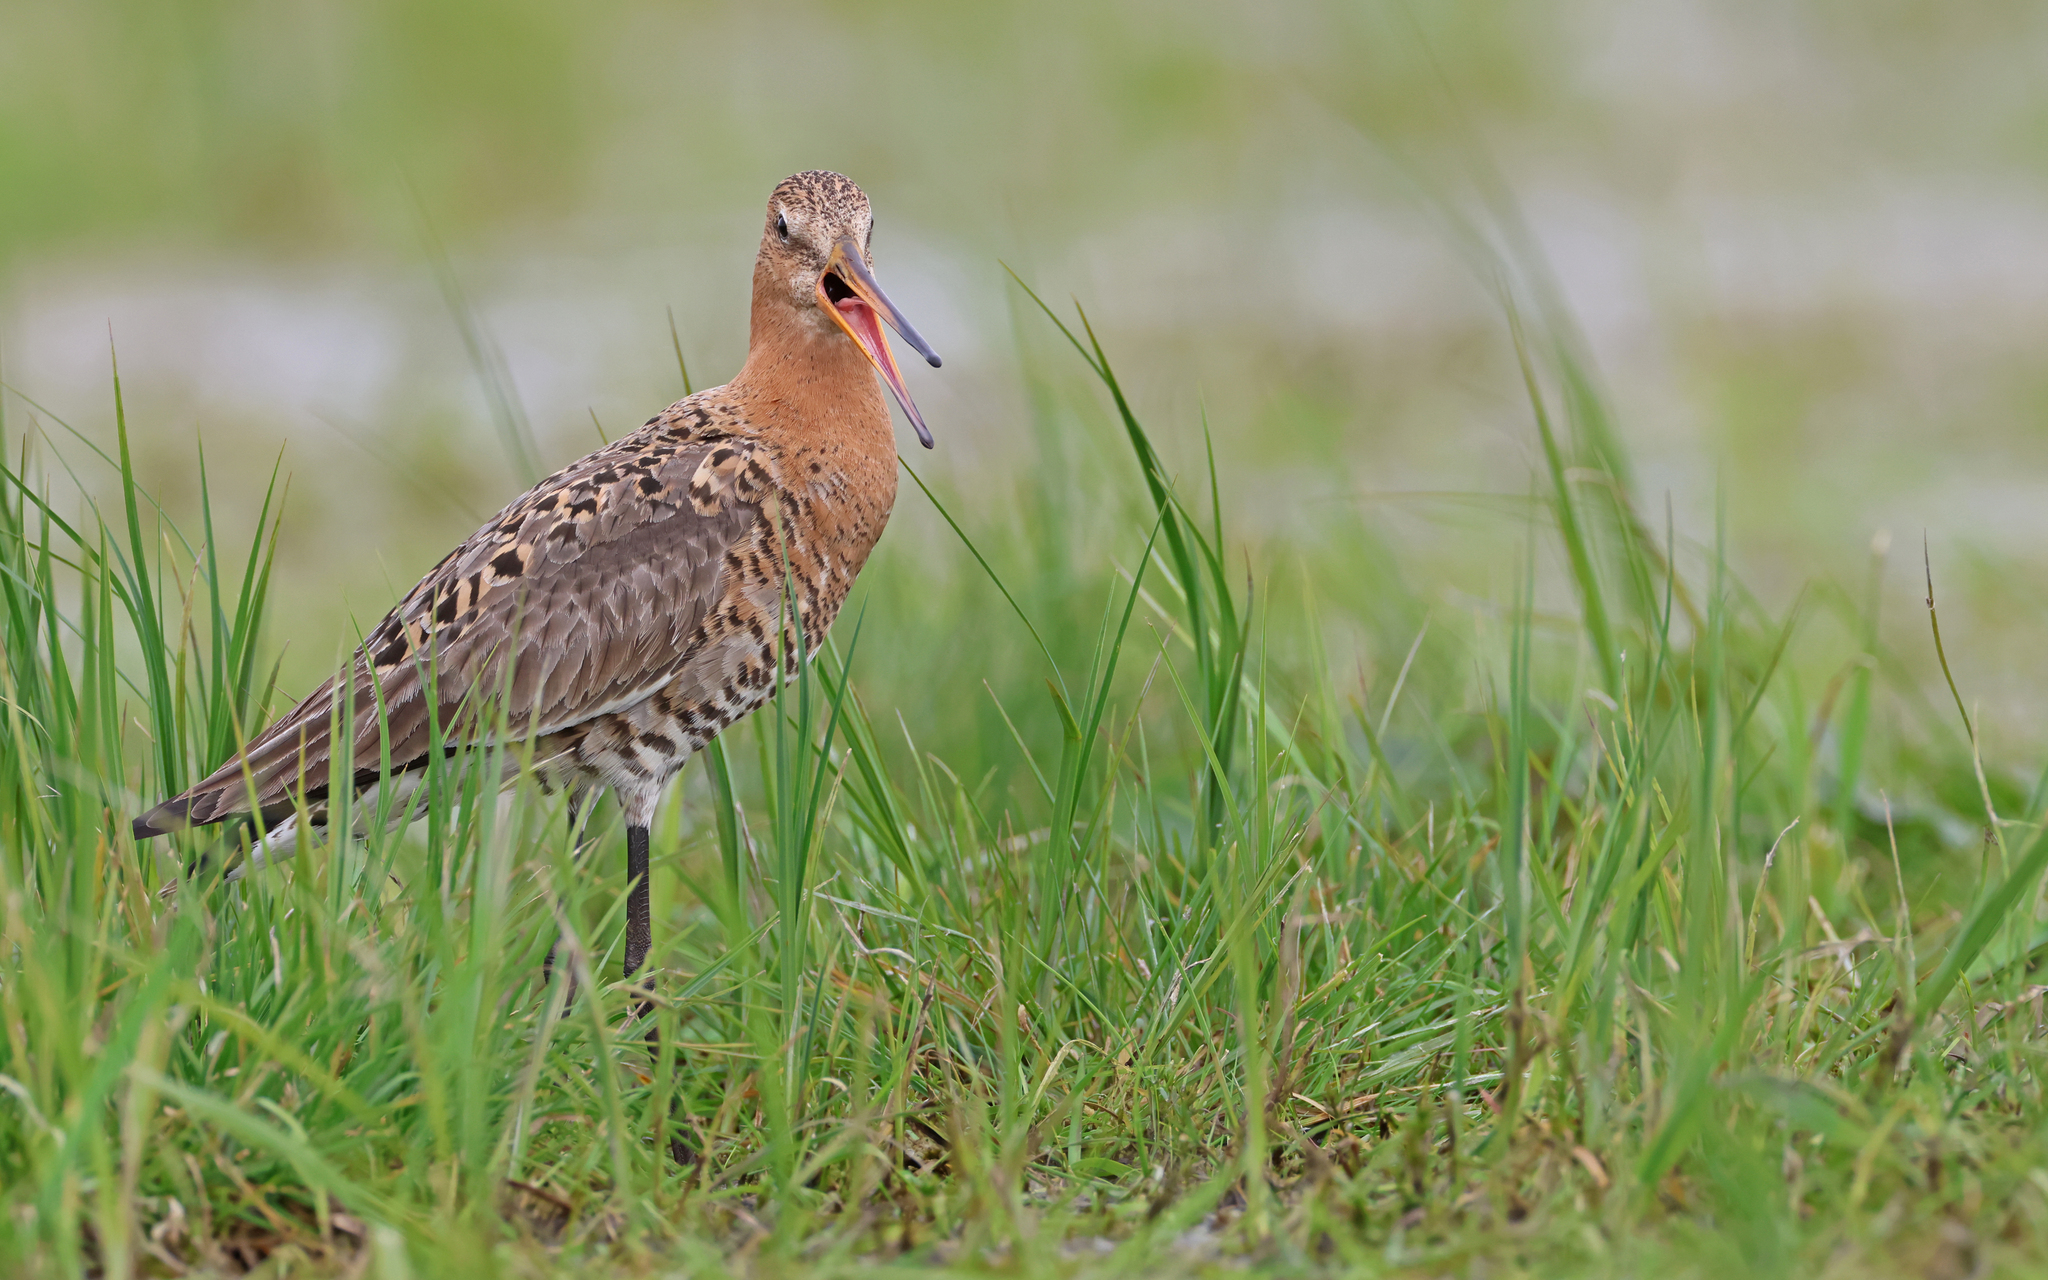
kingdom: Animalia
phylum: Chordata
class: Aves
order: Charadriiformes
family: Scolopacidae
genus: Limosa
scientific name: Limosa limosa
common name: Black-tailed godwit
